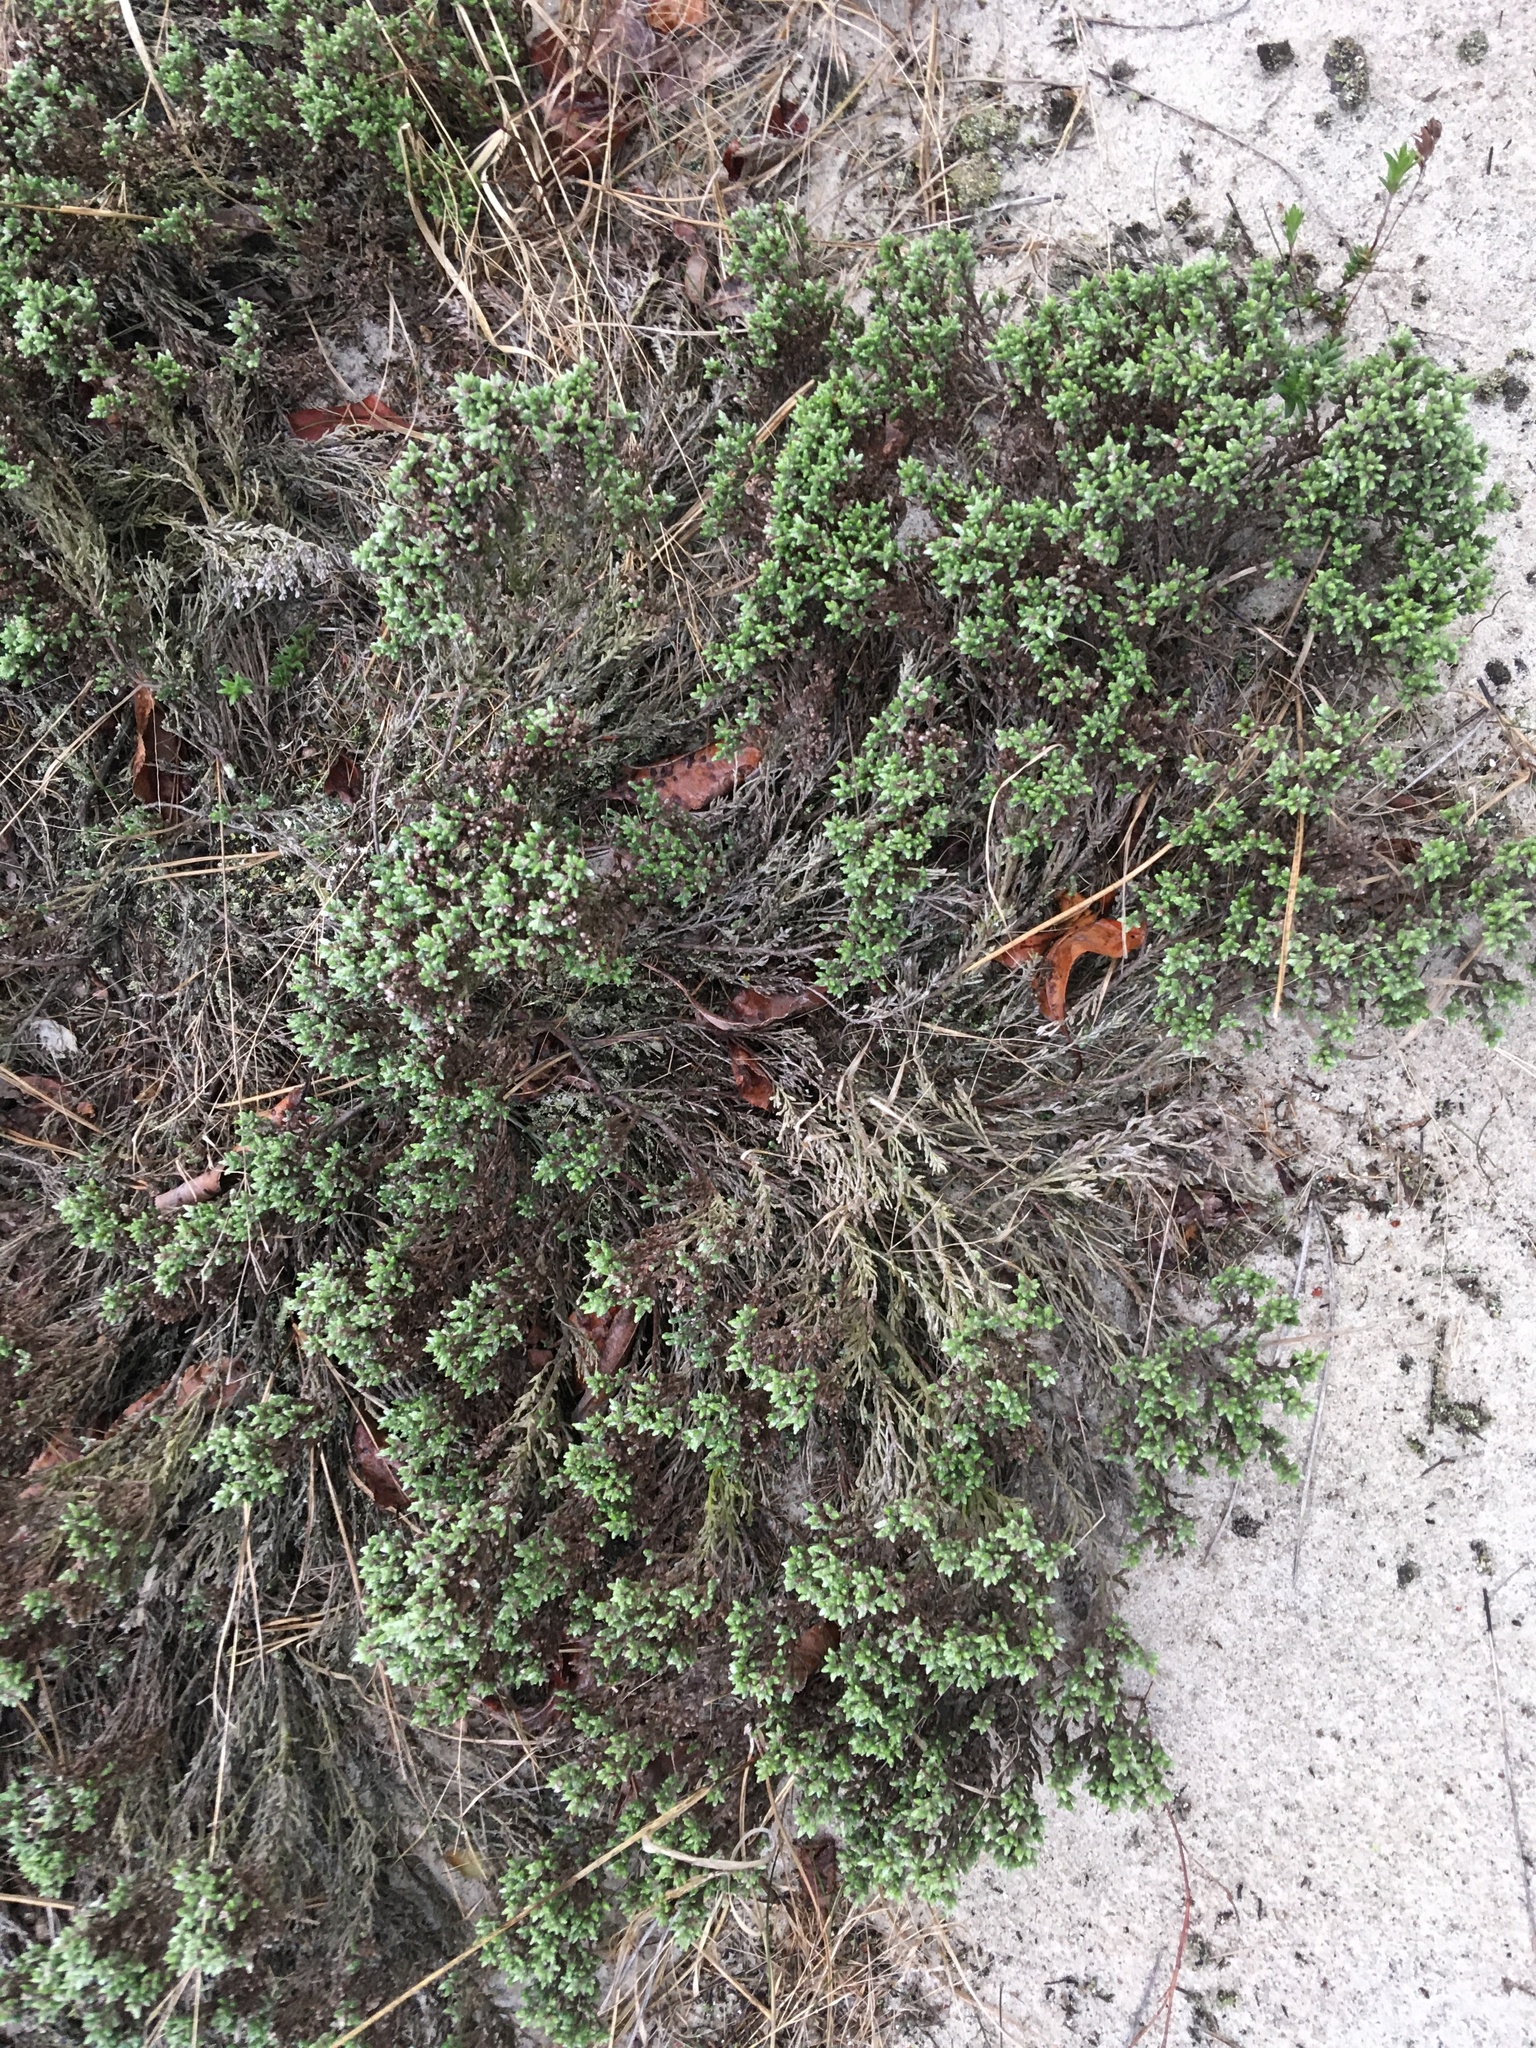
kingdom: Plantae
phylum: Tracheophyta
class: Magnoliopsida
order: Malvales
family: Cistaceae
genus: Hudsonia
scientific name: Hudsonia tomentosa
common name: Beach-heath
